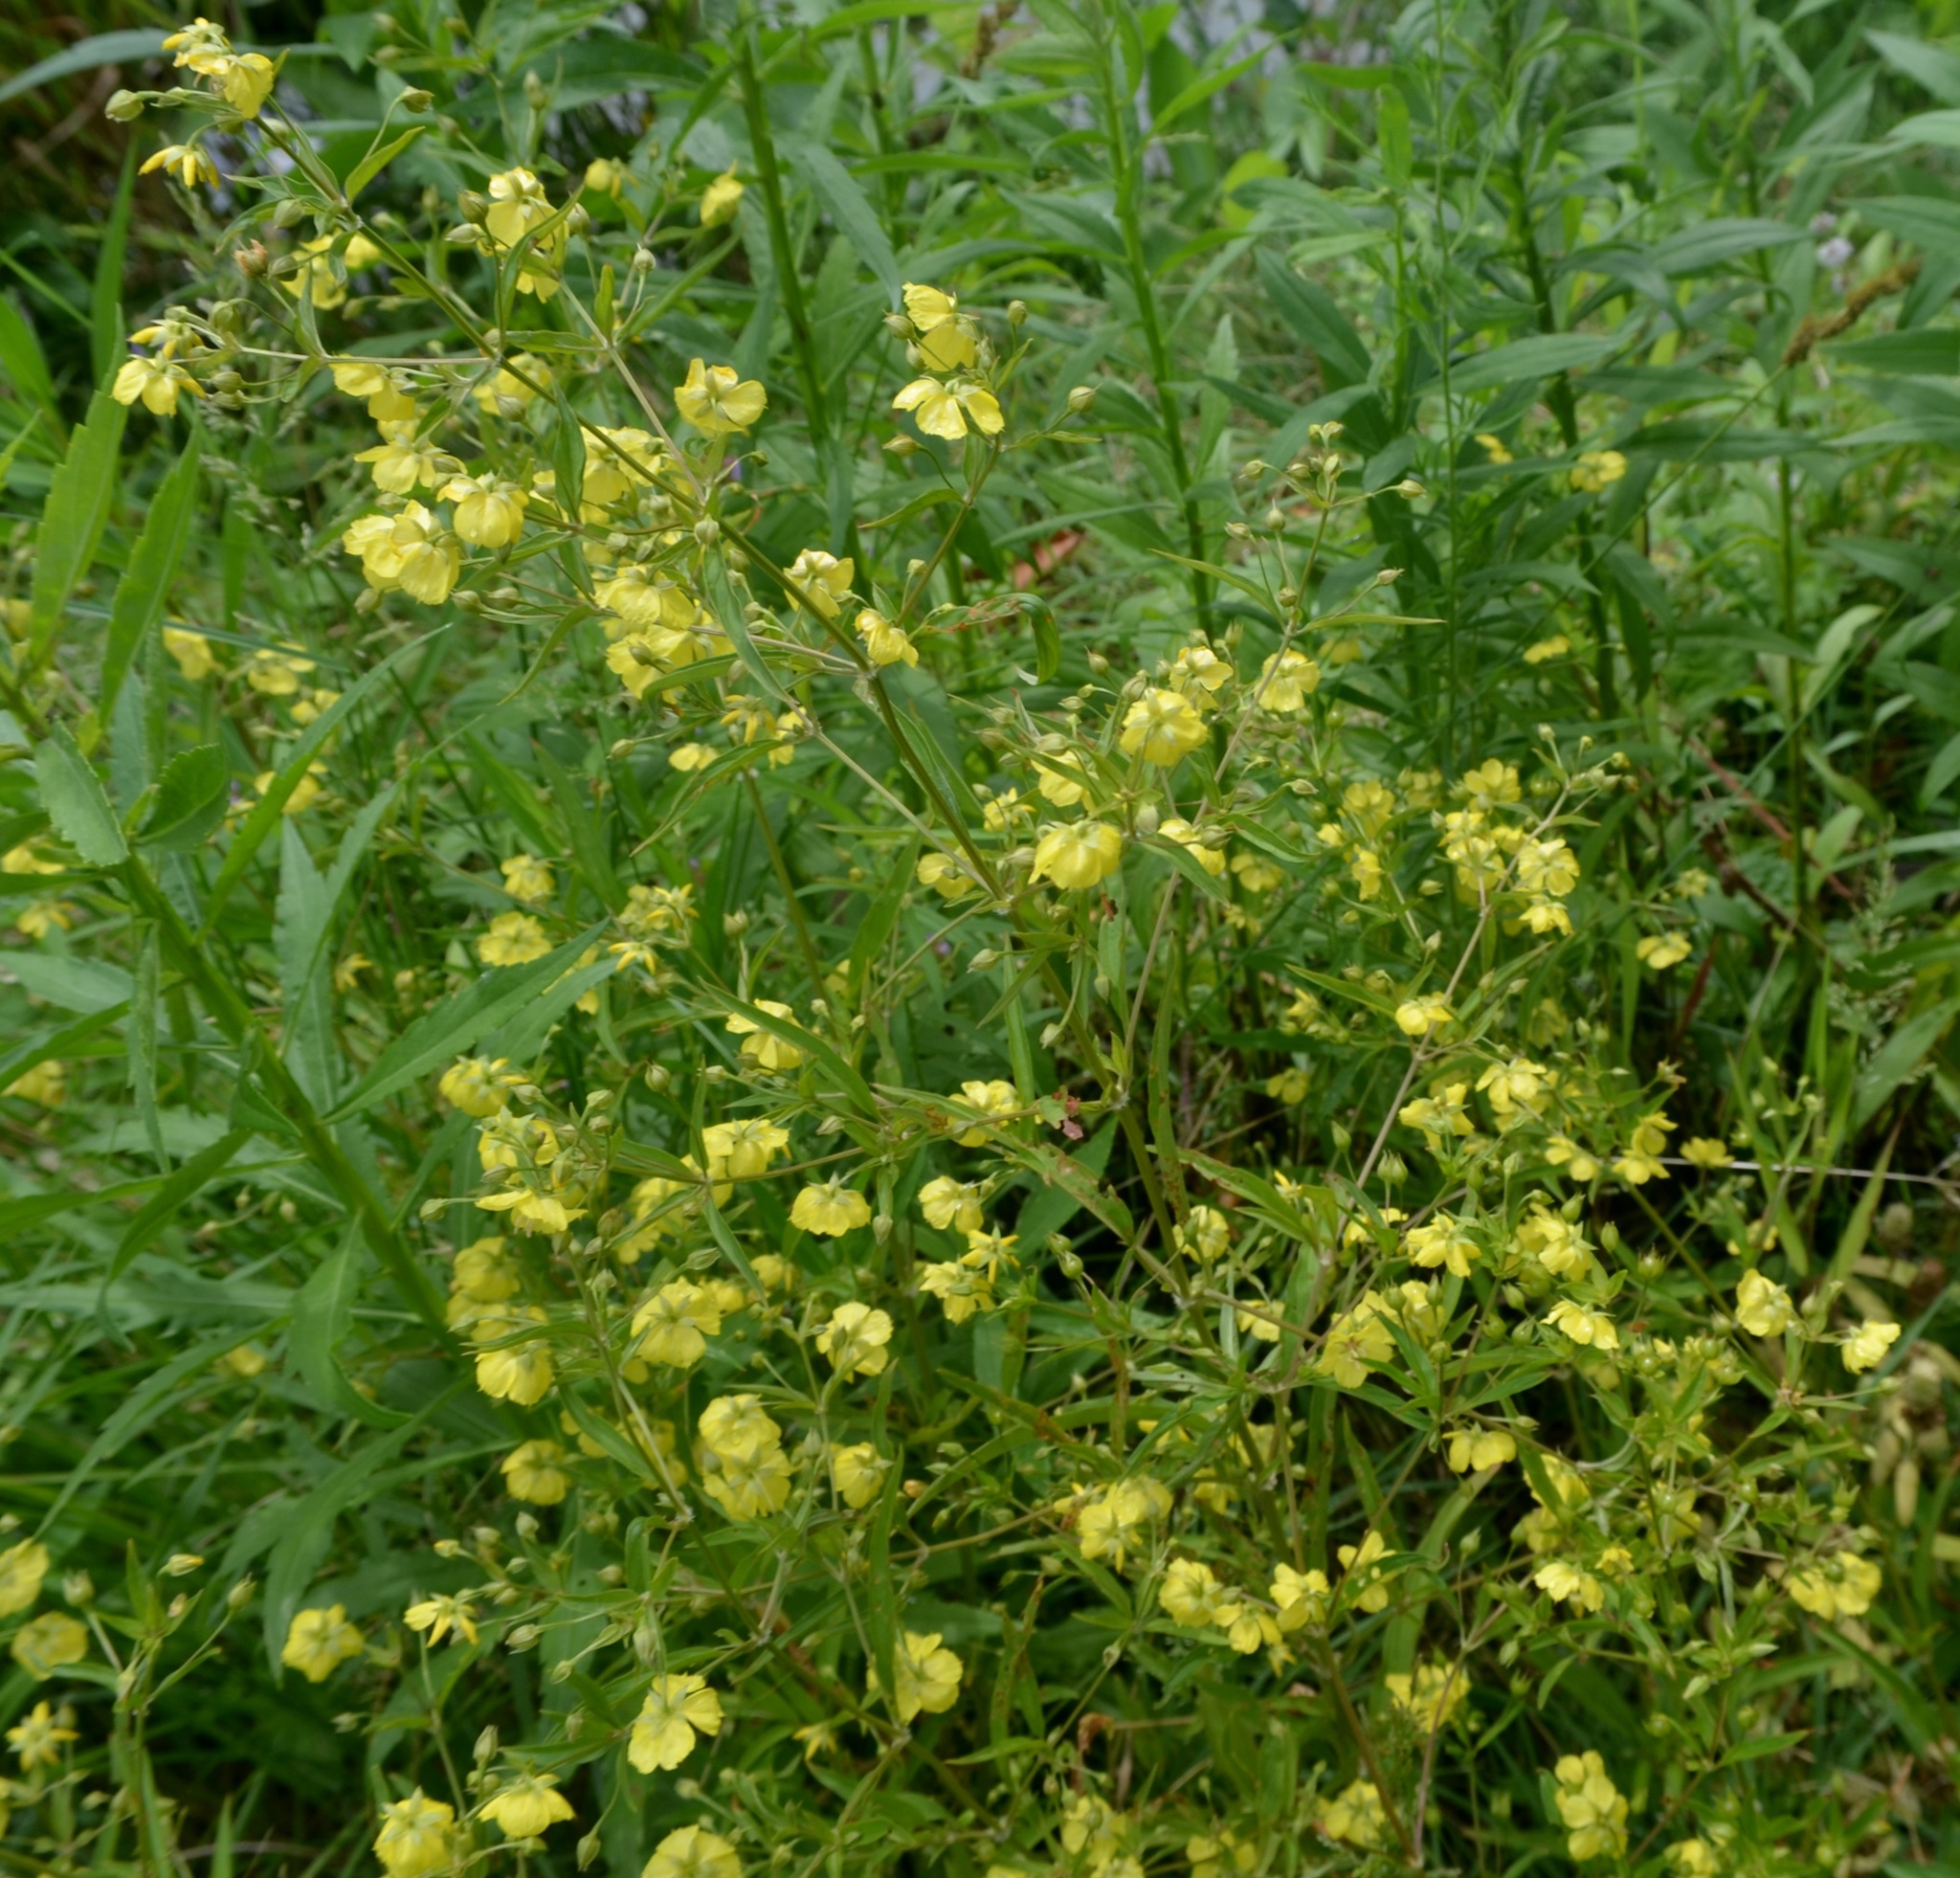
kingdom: Plantae
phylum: Tracheophyta
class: Magnoliopsida
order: Ericales
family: Primulaceae
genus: Lysimachia
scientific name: Lysimachia lanceolata
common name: Lance-leaved loosestrife
